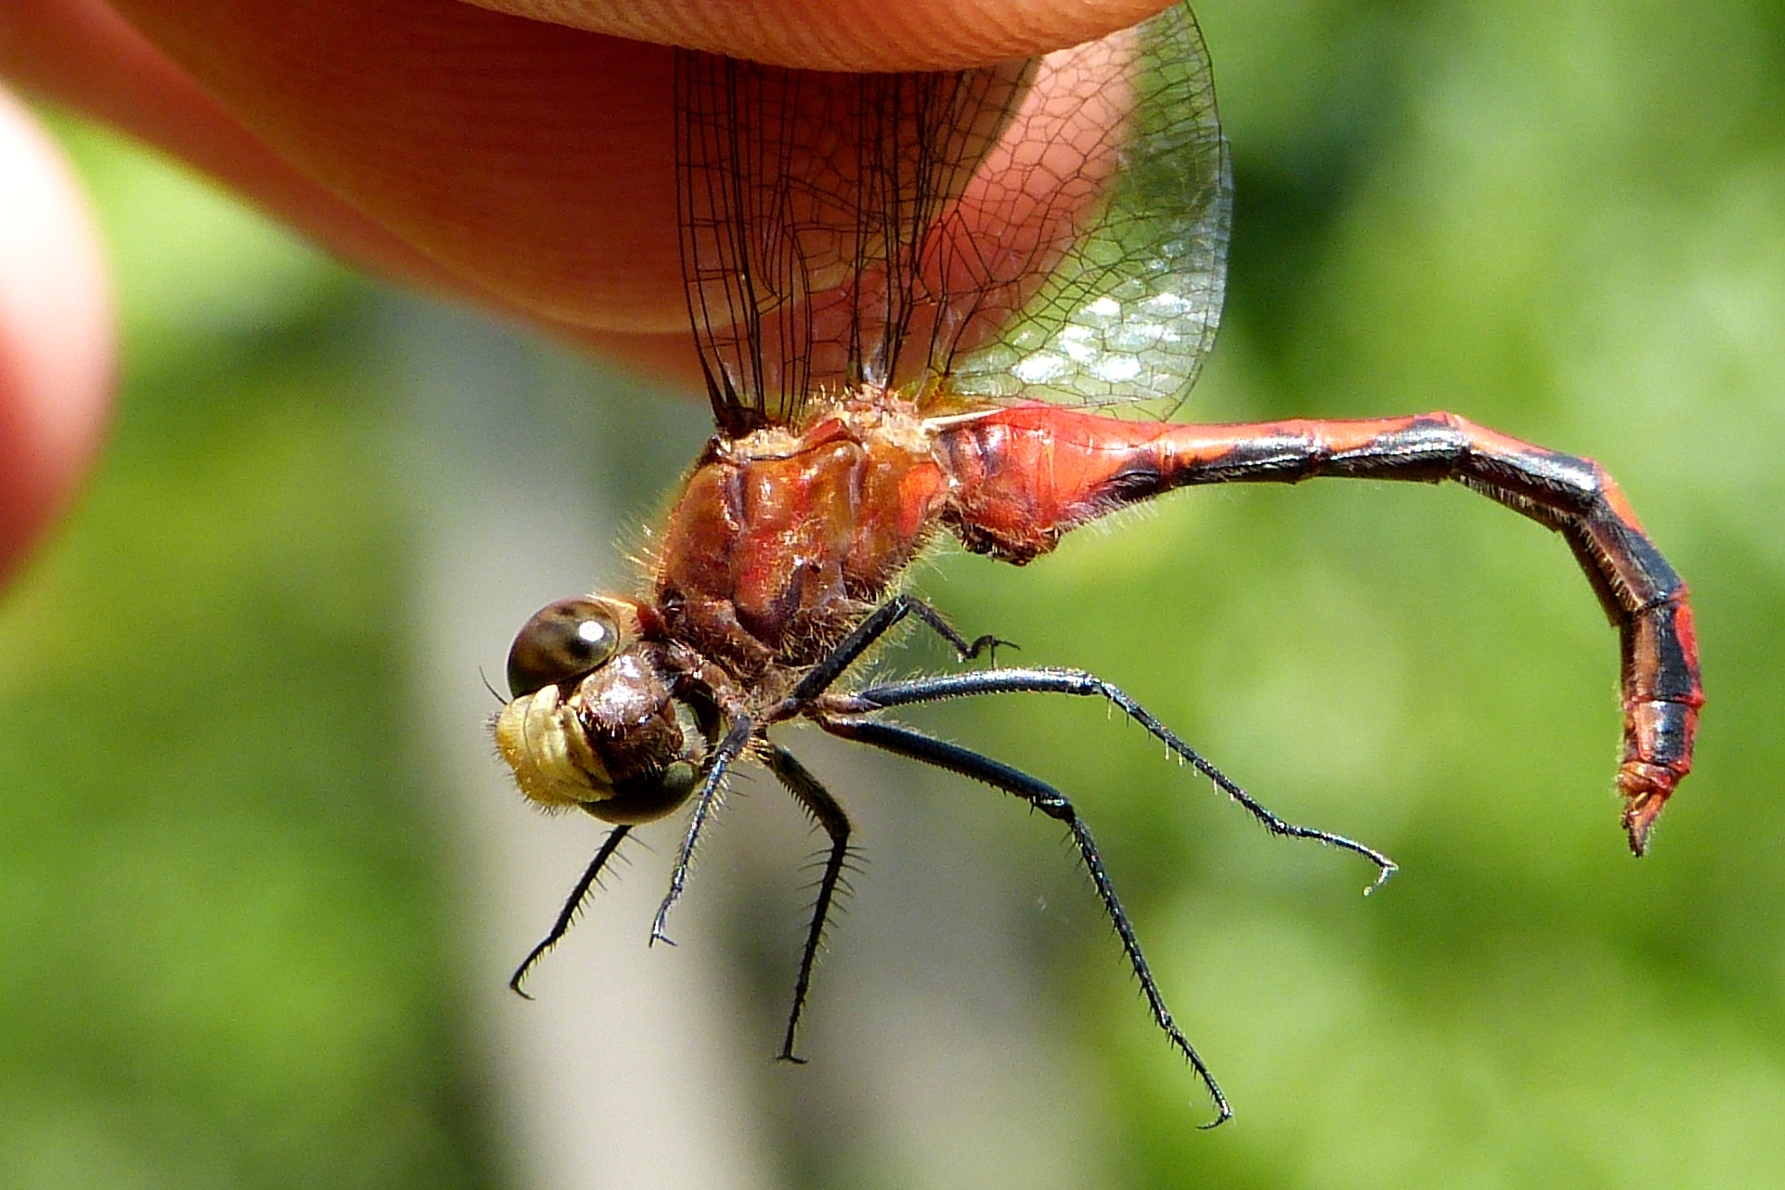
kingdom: Animalia
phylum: Arthropoda
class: Insecta
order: Odonata
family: Libellulidae
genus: Sympetrum
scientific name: Sympetrum obtrusum
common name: White-faced meadowhawk
